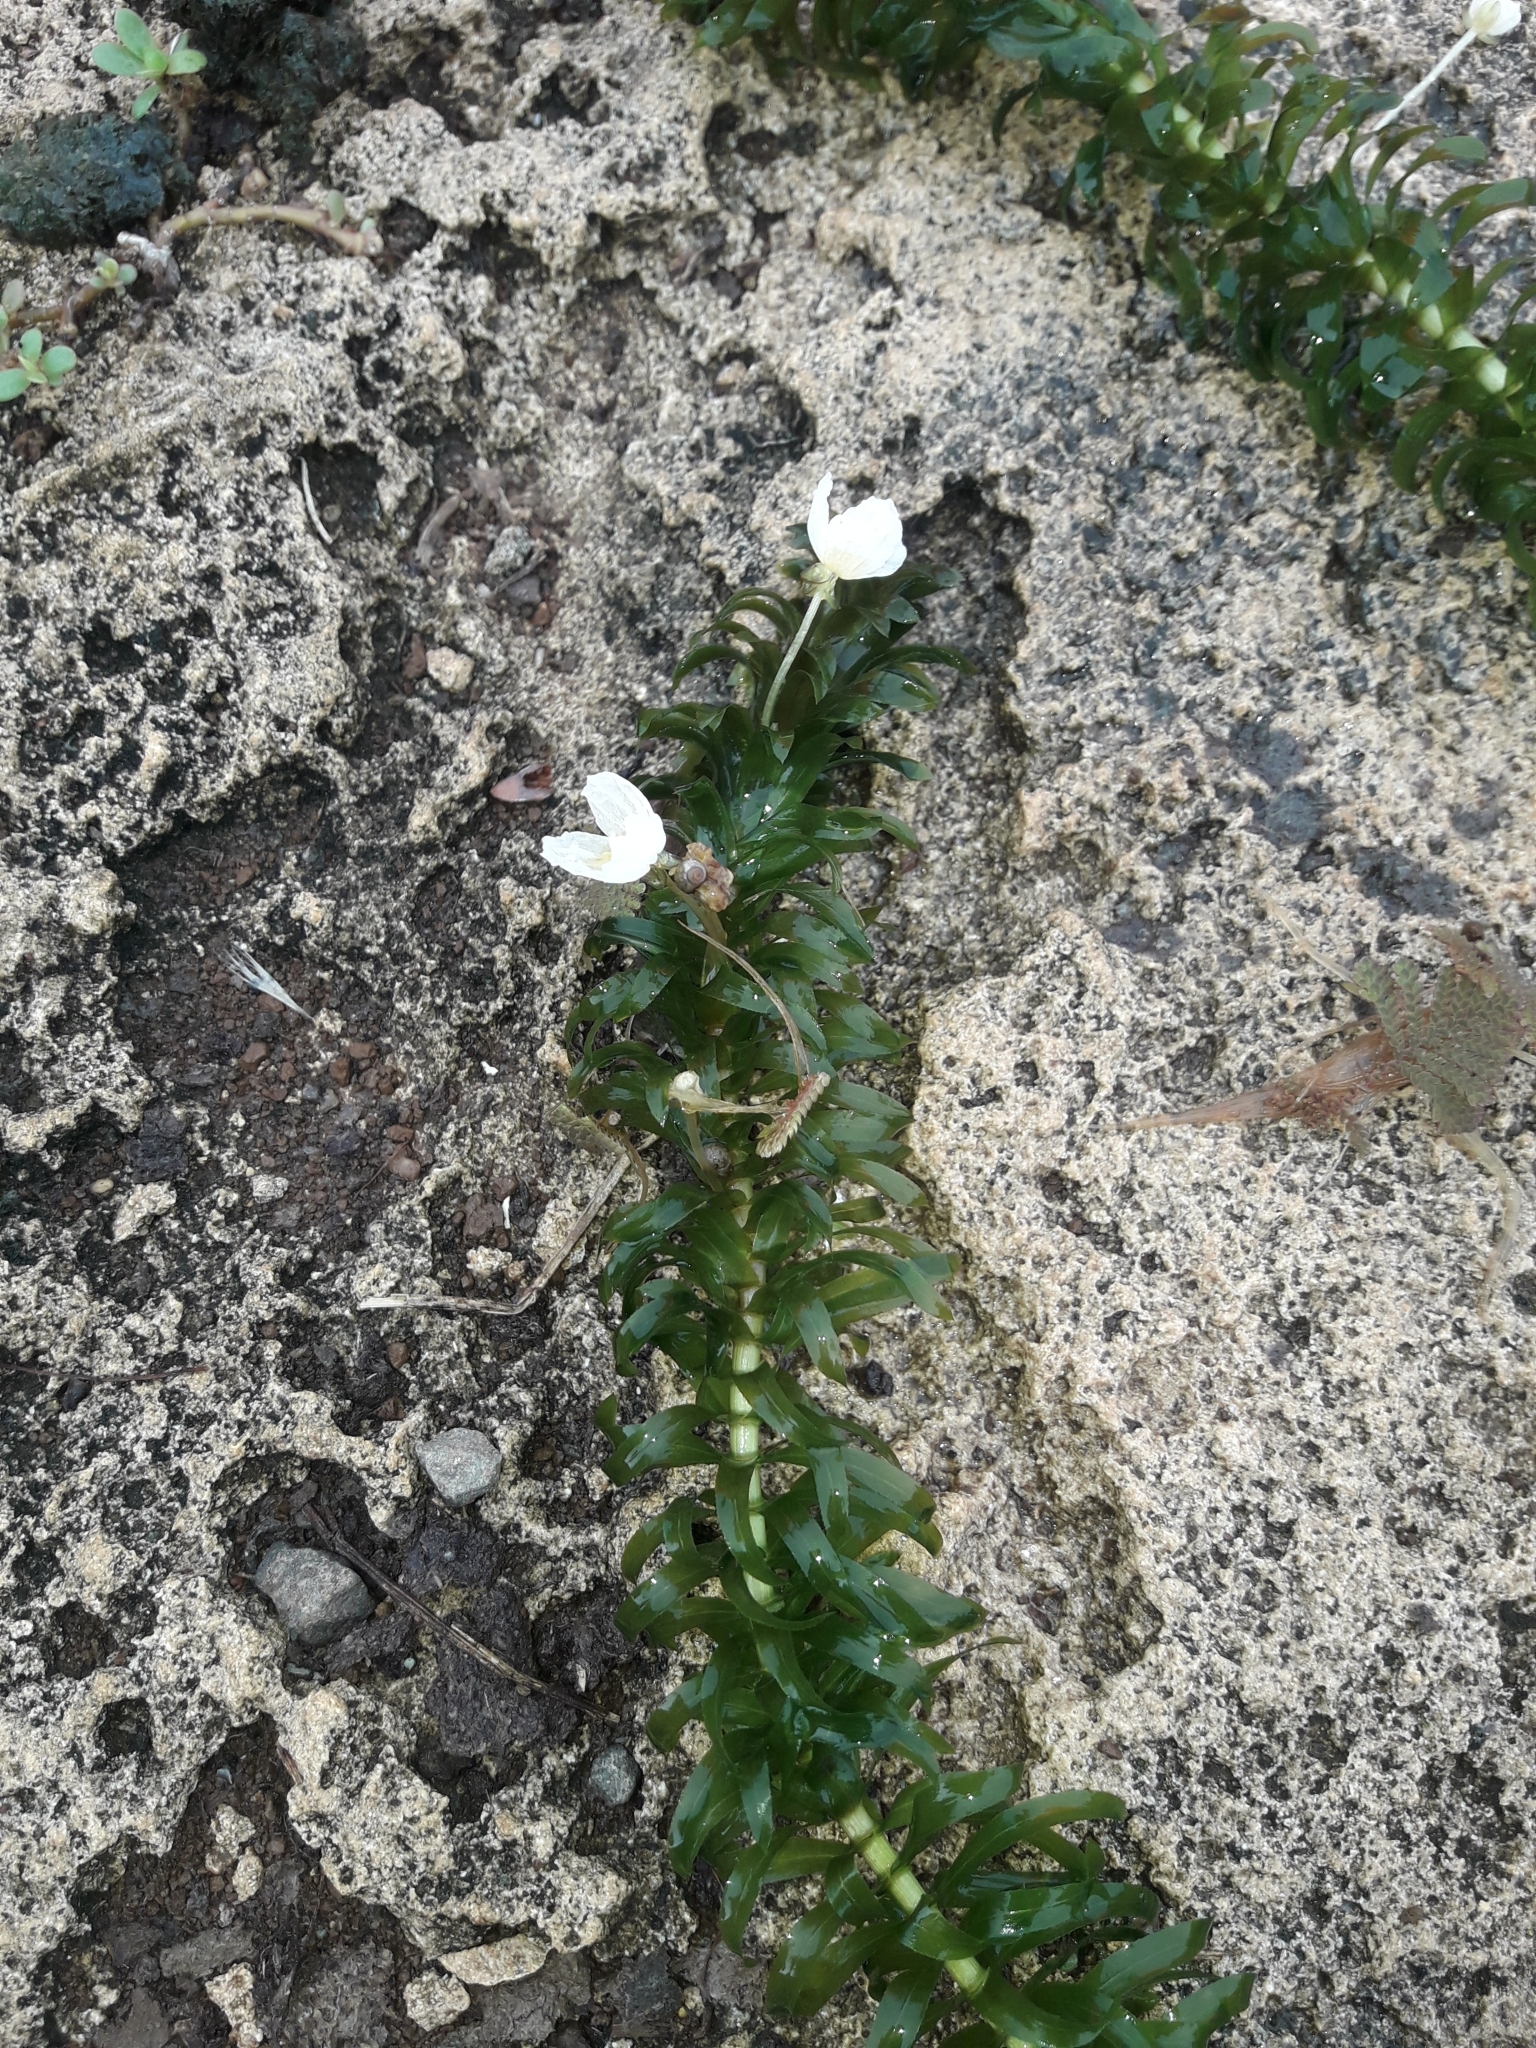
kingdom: Plantae
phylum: Tracheophyta
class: Liliopsida
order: Alismatales
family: Hydrocharitaceae
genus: Elodea
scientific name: Elodea densa
